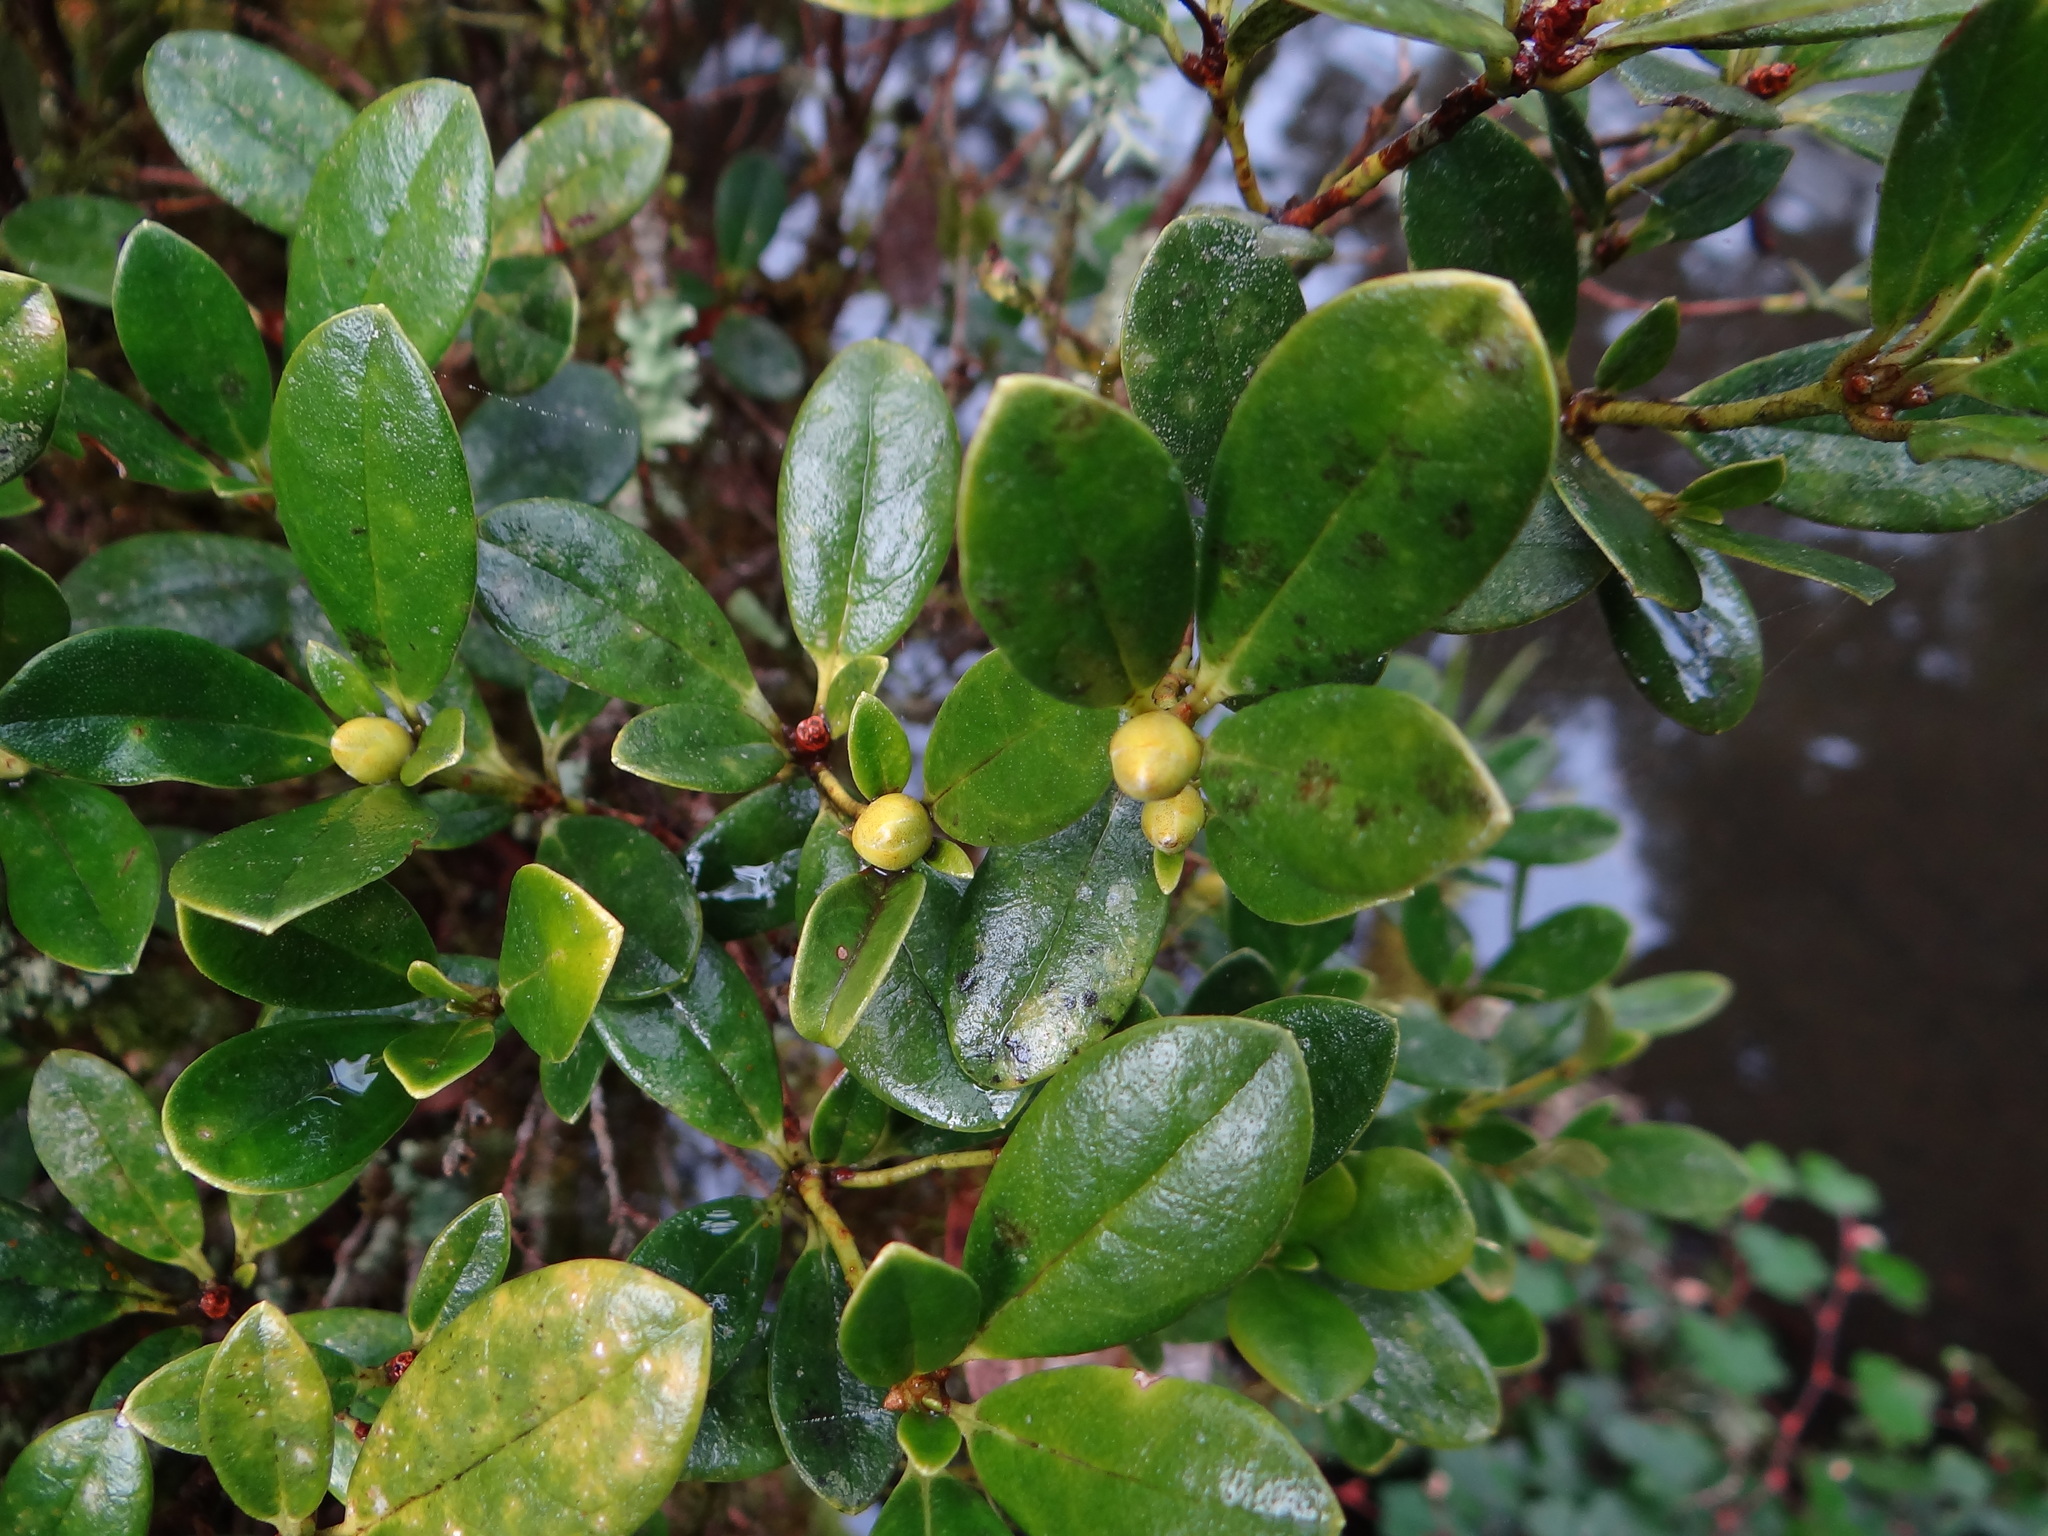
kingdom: Plantae
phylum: Tracheophyta
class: Magnoliopsida
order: Ericales
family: Ericaceae
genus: Rhododendron
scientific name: Rhododendron kawakamii
